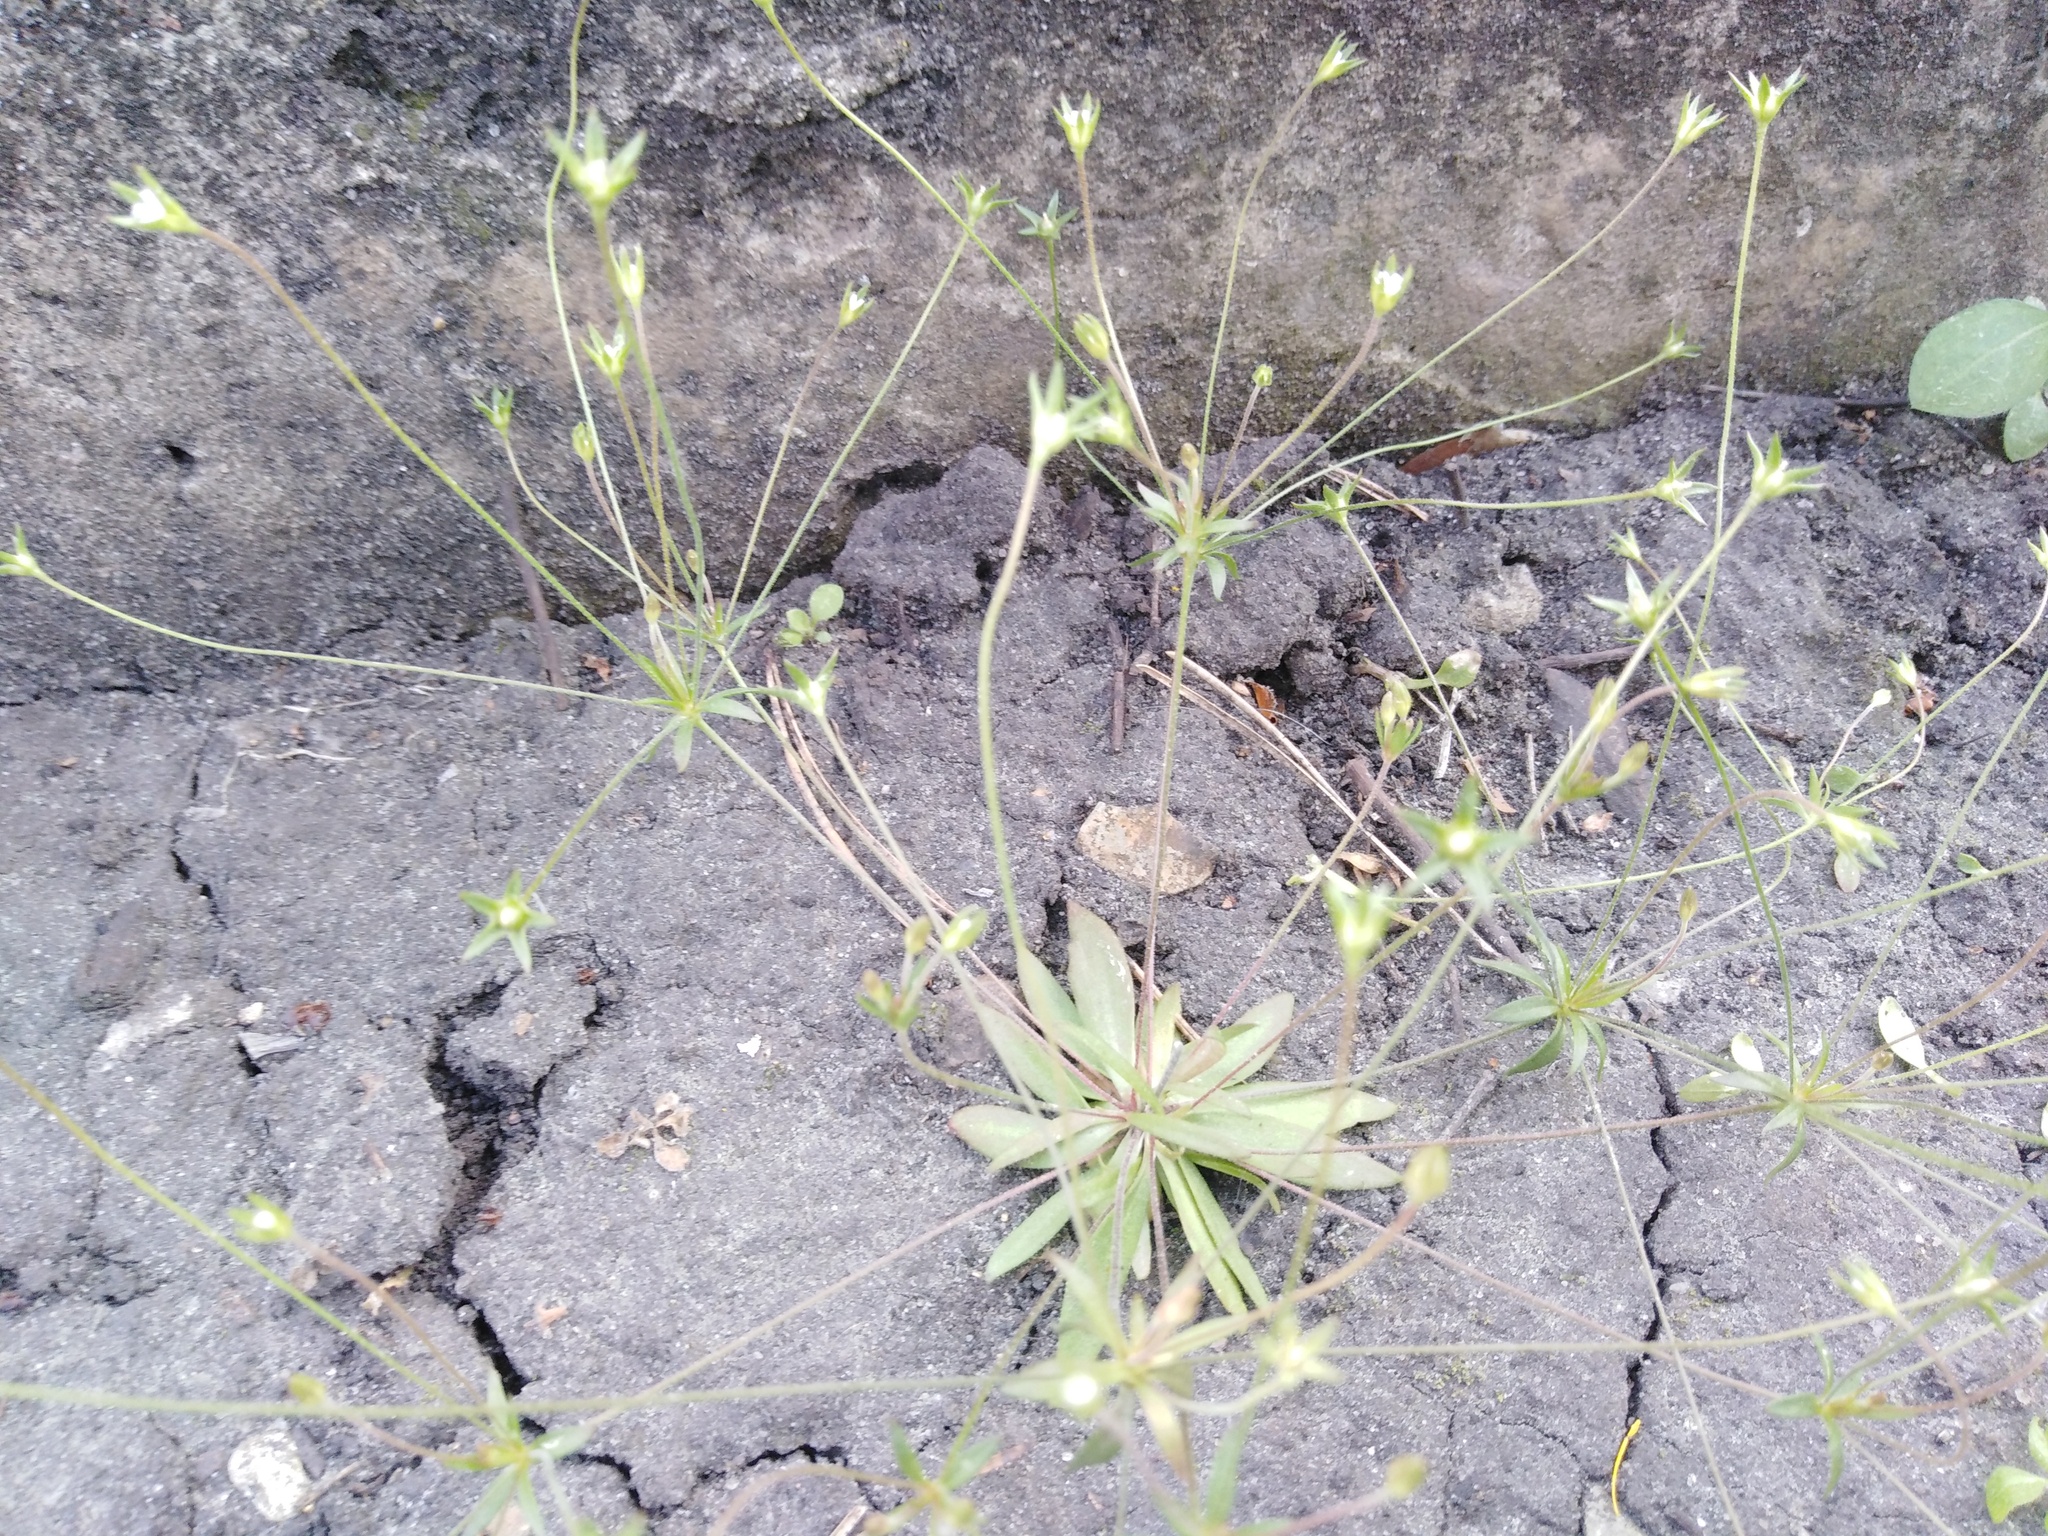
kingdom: Plantae
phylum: Tracheophyta
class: Magnoliopsida
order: Ericales
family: Primulaceae
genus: Androsace
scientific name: Androsace elongata
